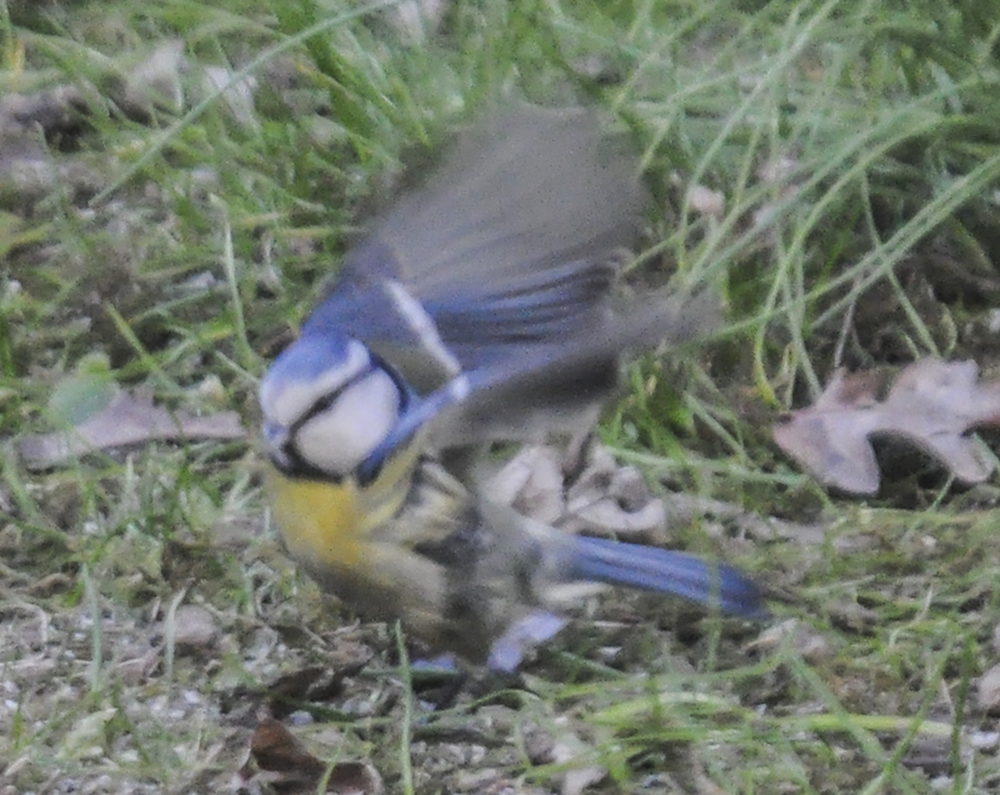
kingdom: Animalia
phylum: Chordata
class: Aves
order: Passeriformes
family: Paridae
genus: Cyanistes
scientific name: Cyanistes caeruleus
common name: Eurasian blue tit
